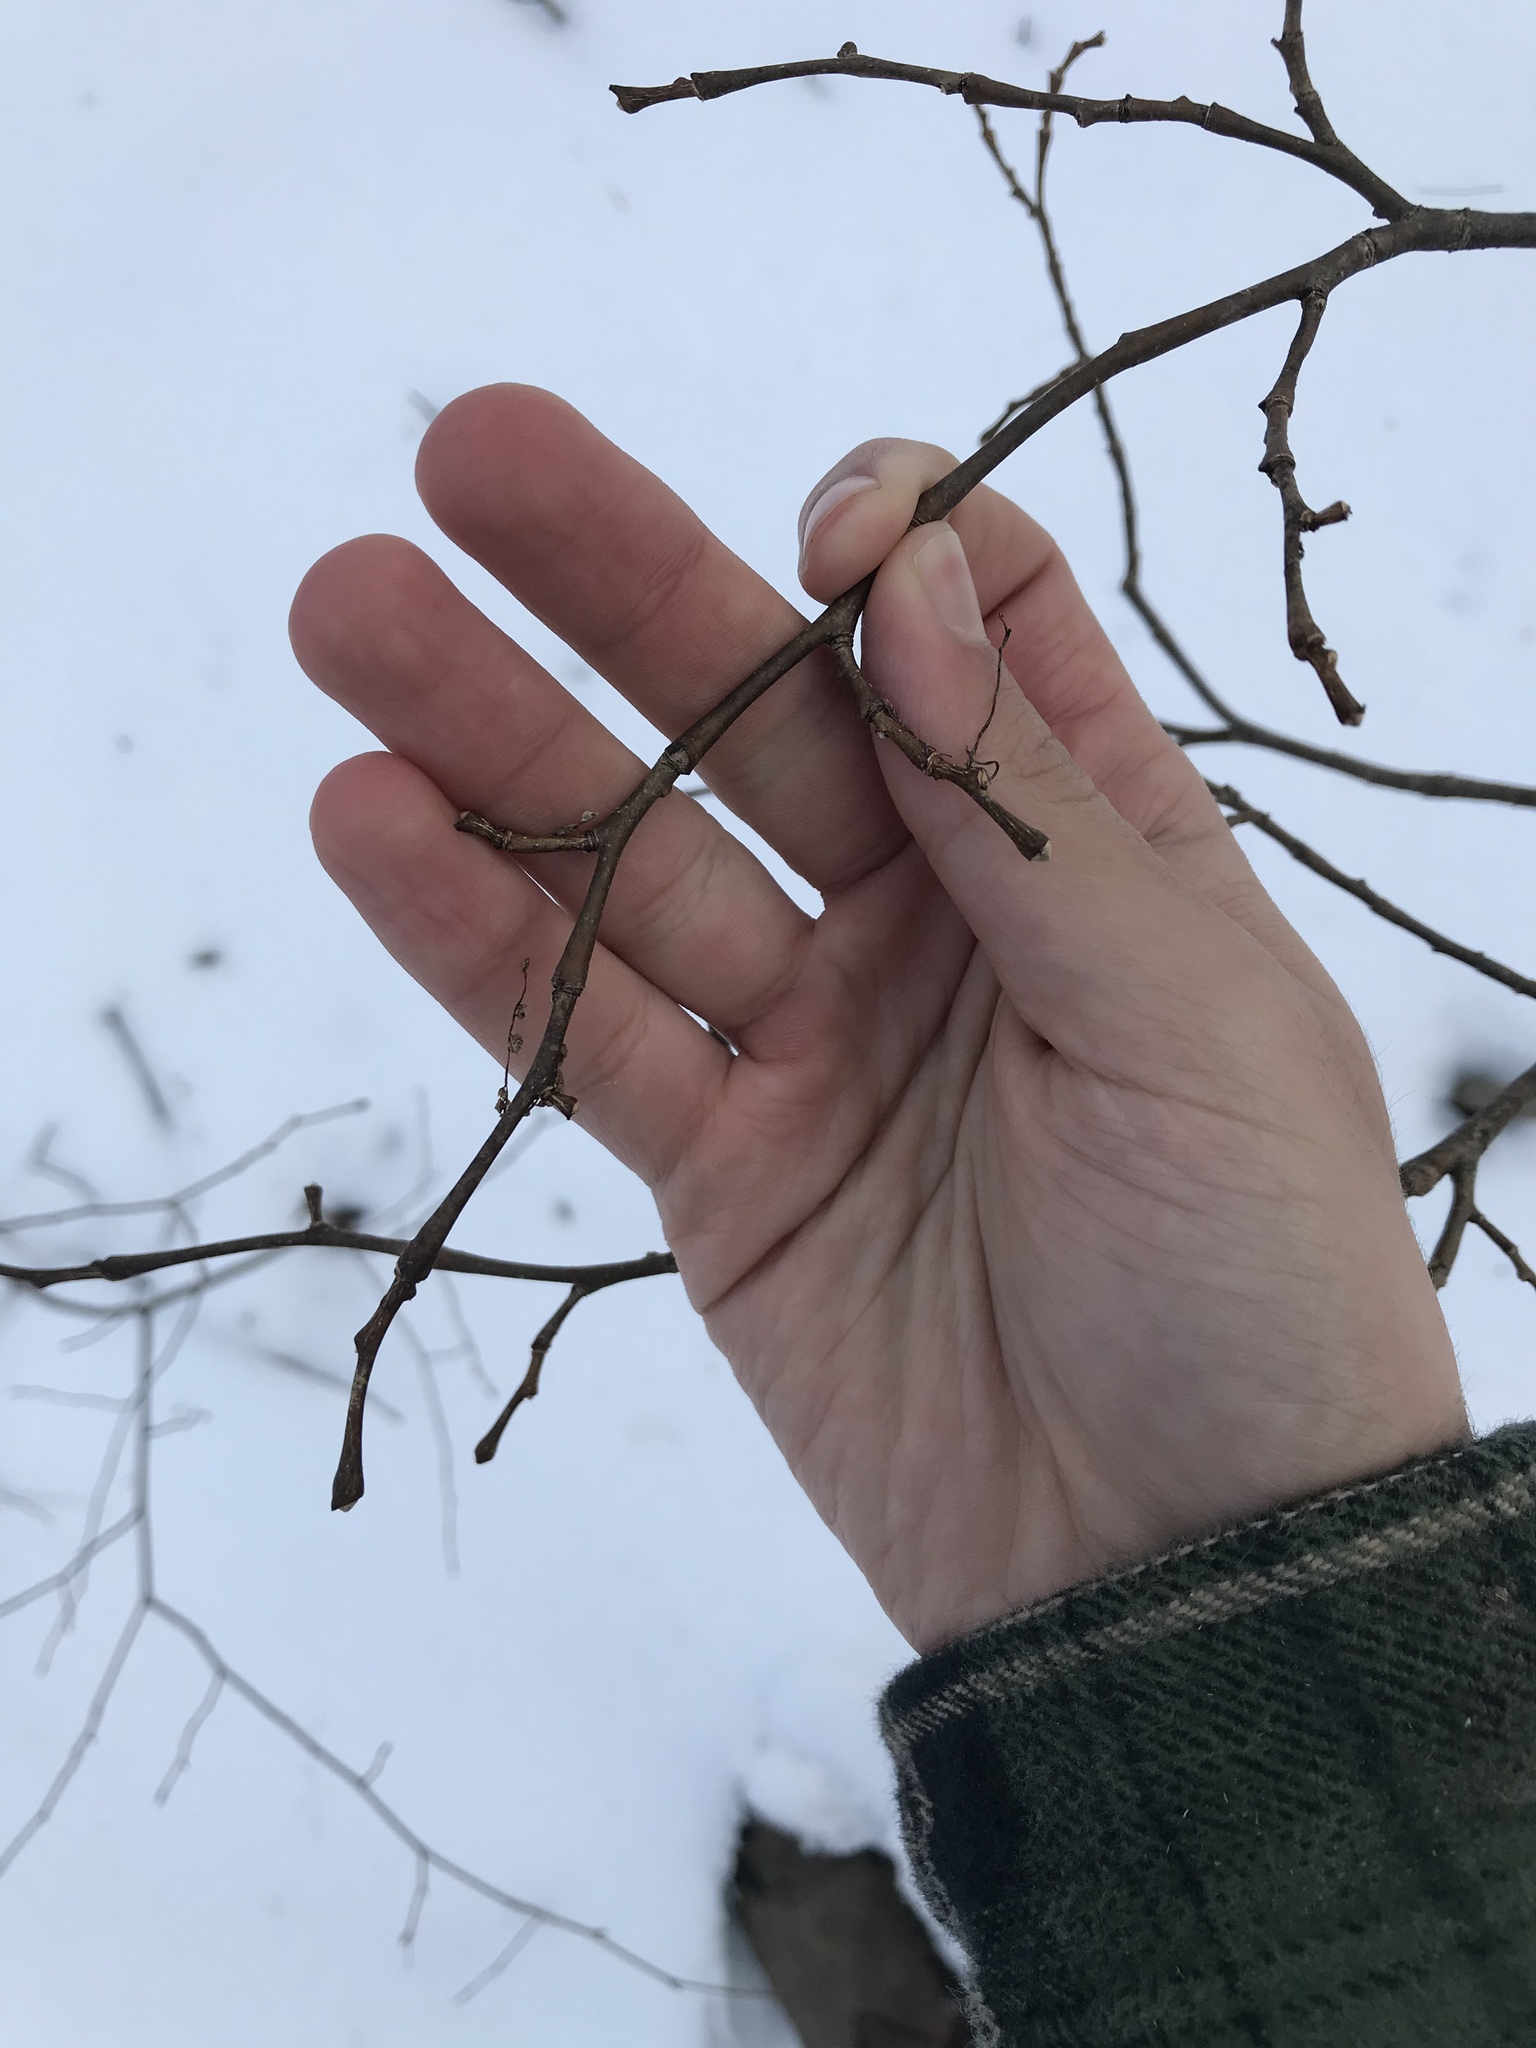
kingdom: Plantae
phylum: Tracheophyta
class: Magnoliopsida
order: Malvales
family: Thymelaeaceae
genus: Dirca
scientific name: Dirca palustris
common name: Leatherwood
